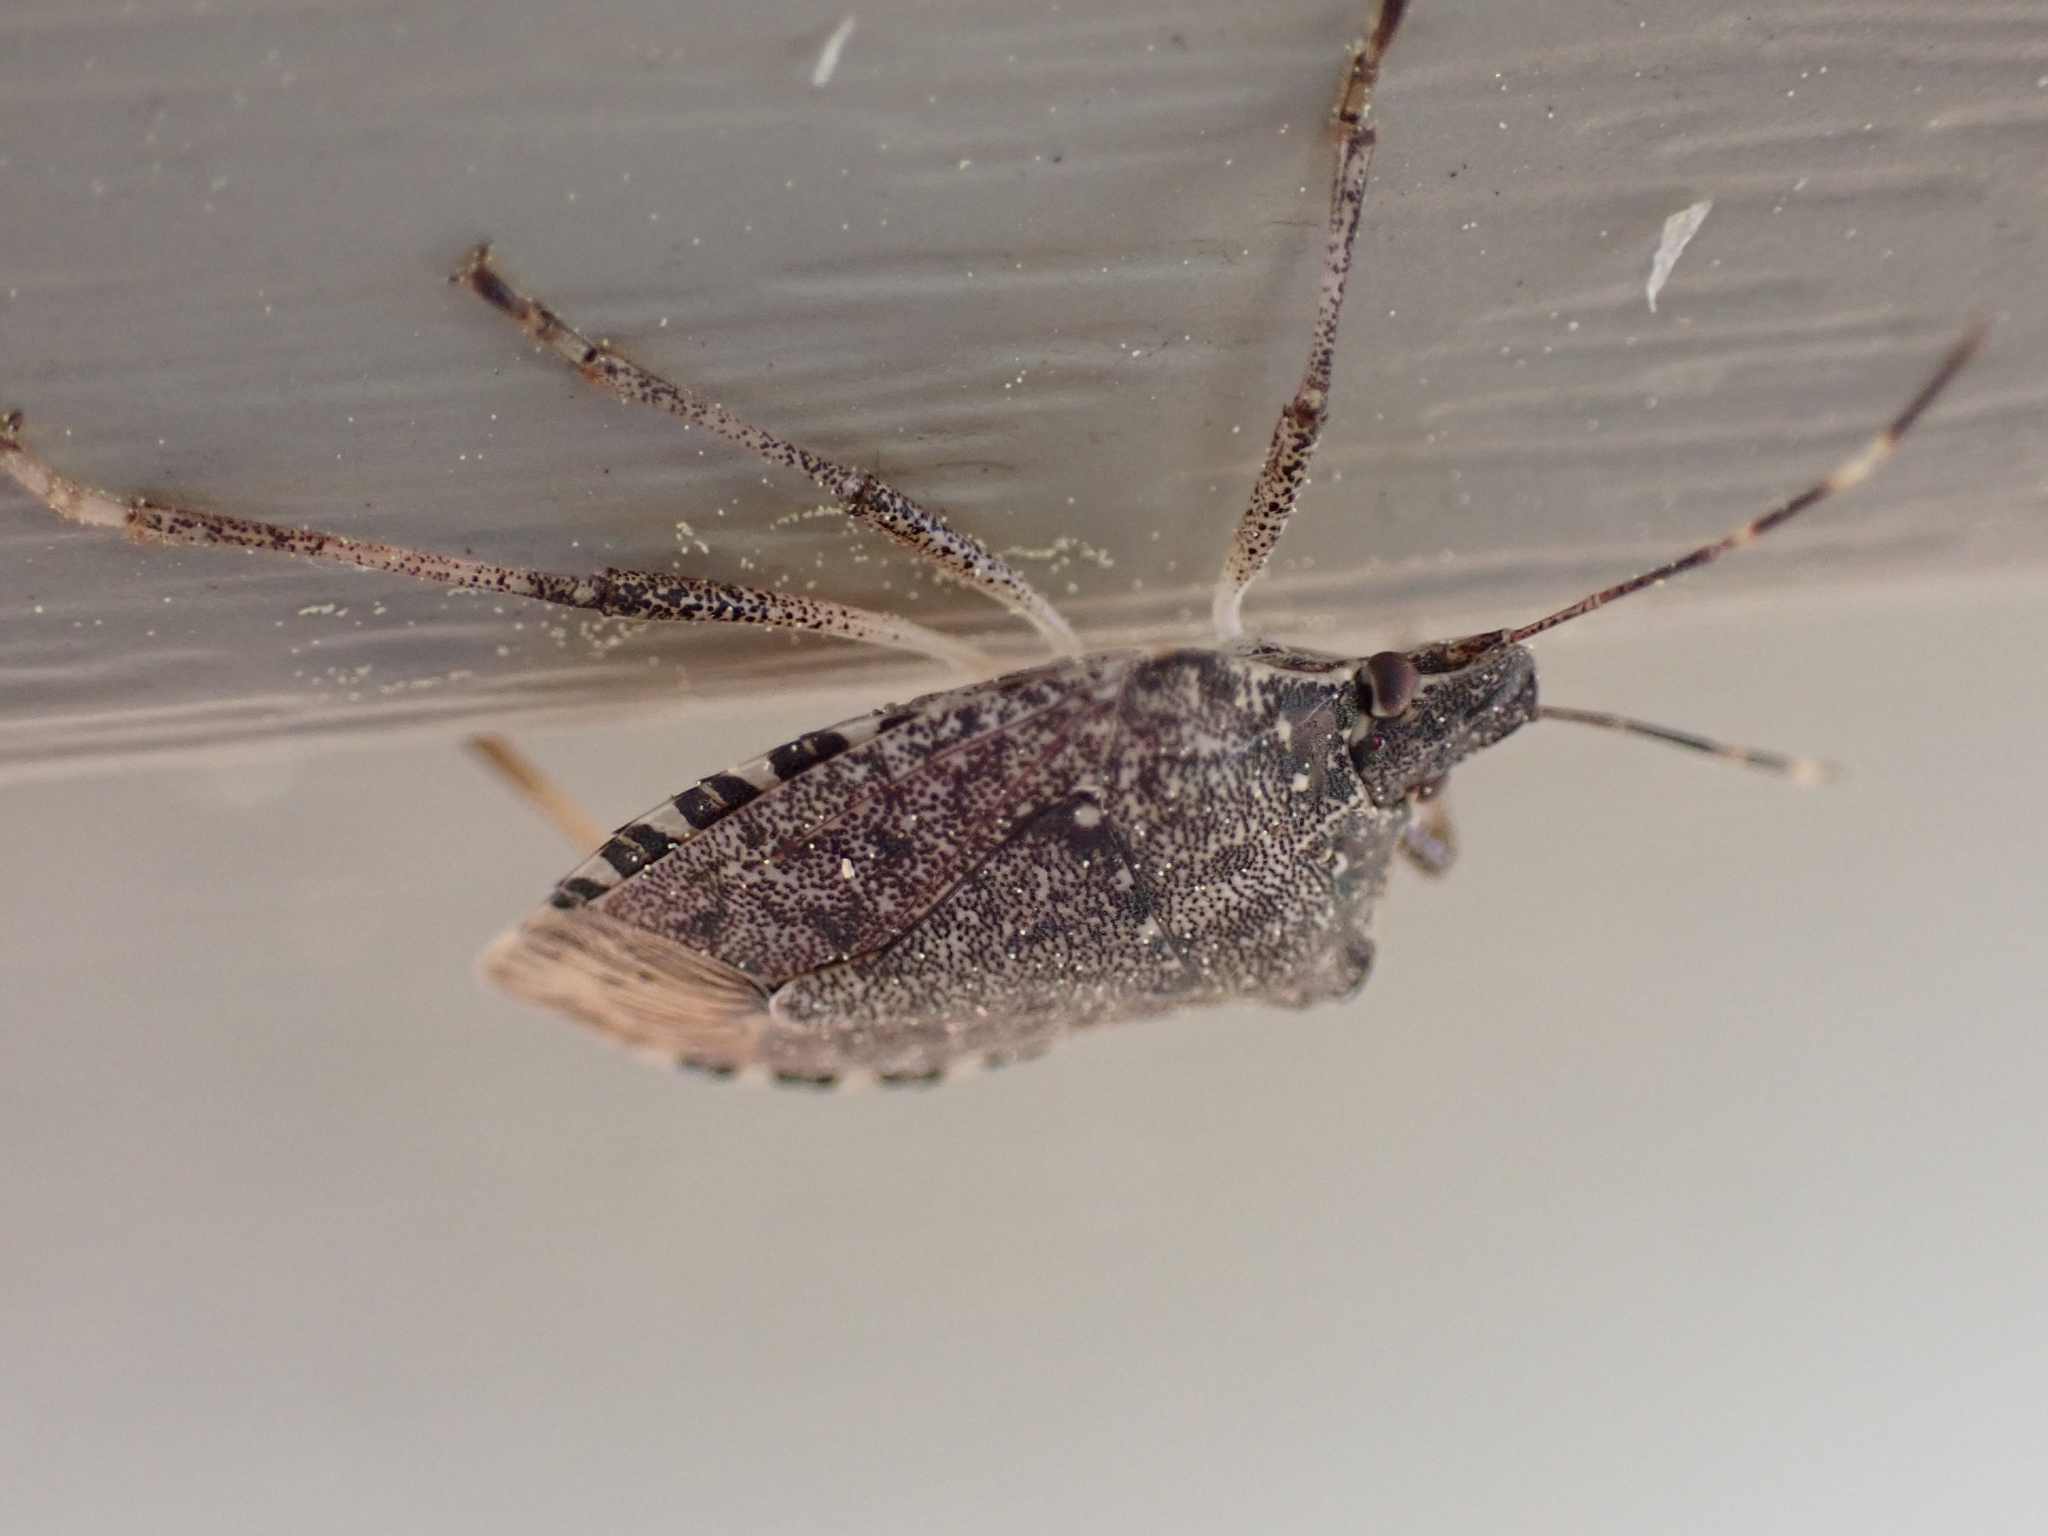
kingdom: Animalia
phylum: Arthropoda
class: Insecta
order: Hemiptera
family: Pentatomidae
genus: Halyomorpha
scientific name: Halyomorpha halys
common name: Brown marmorated stink bug
